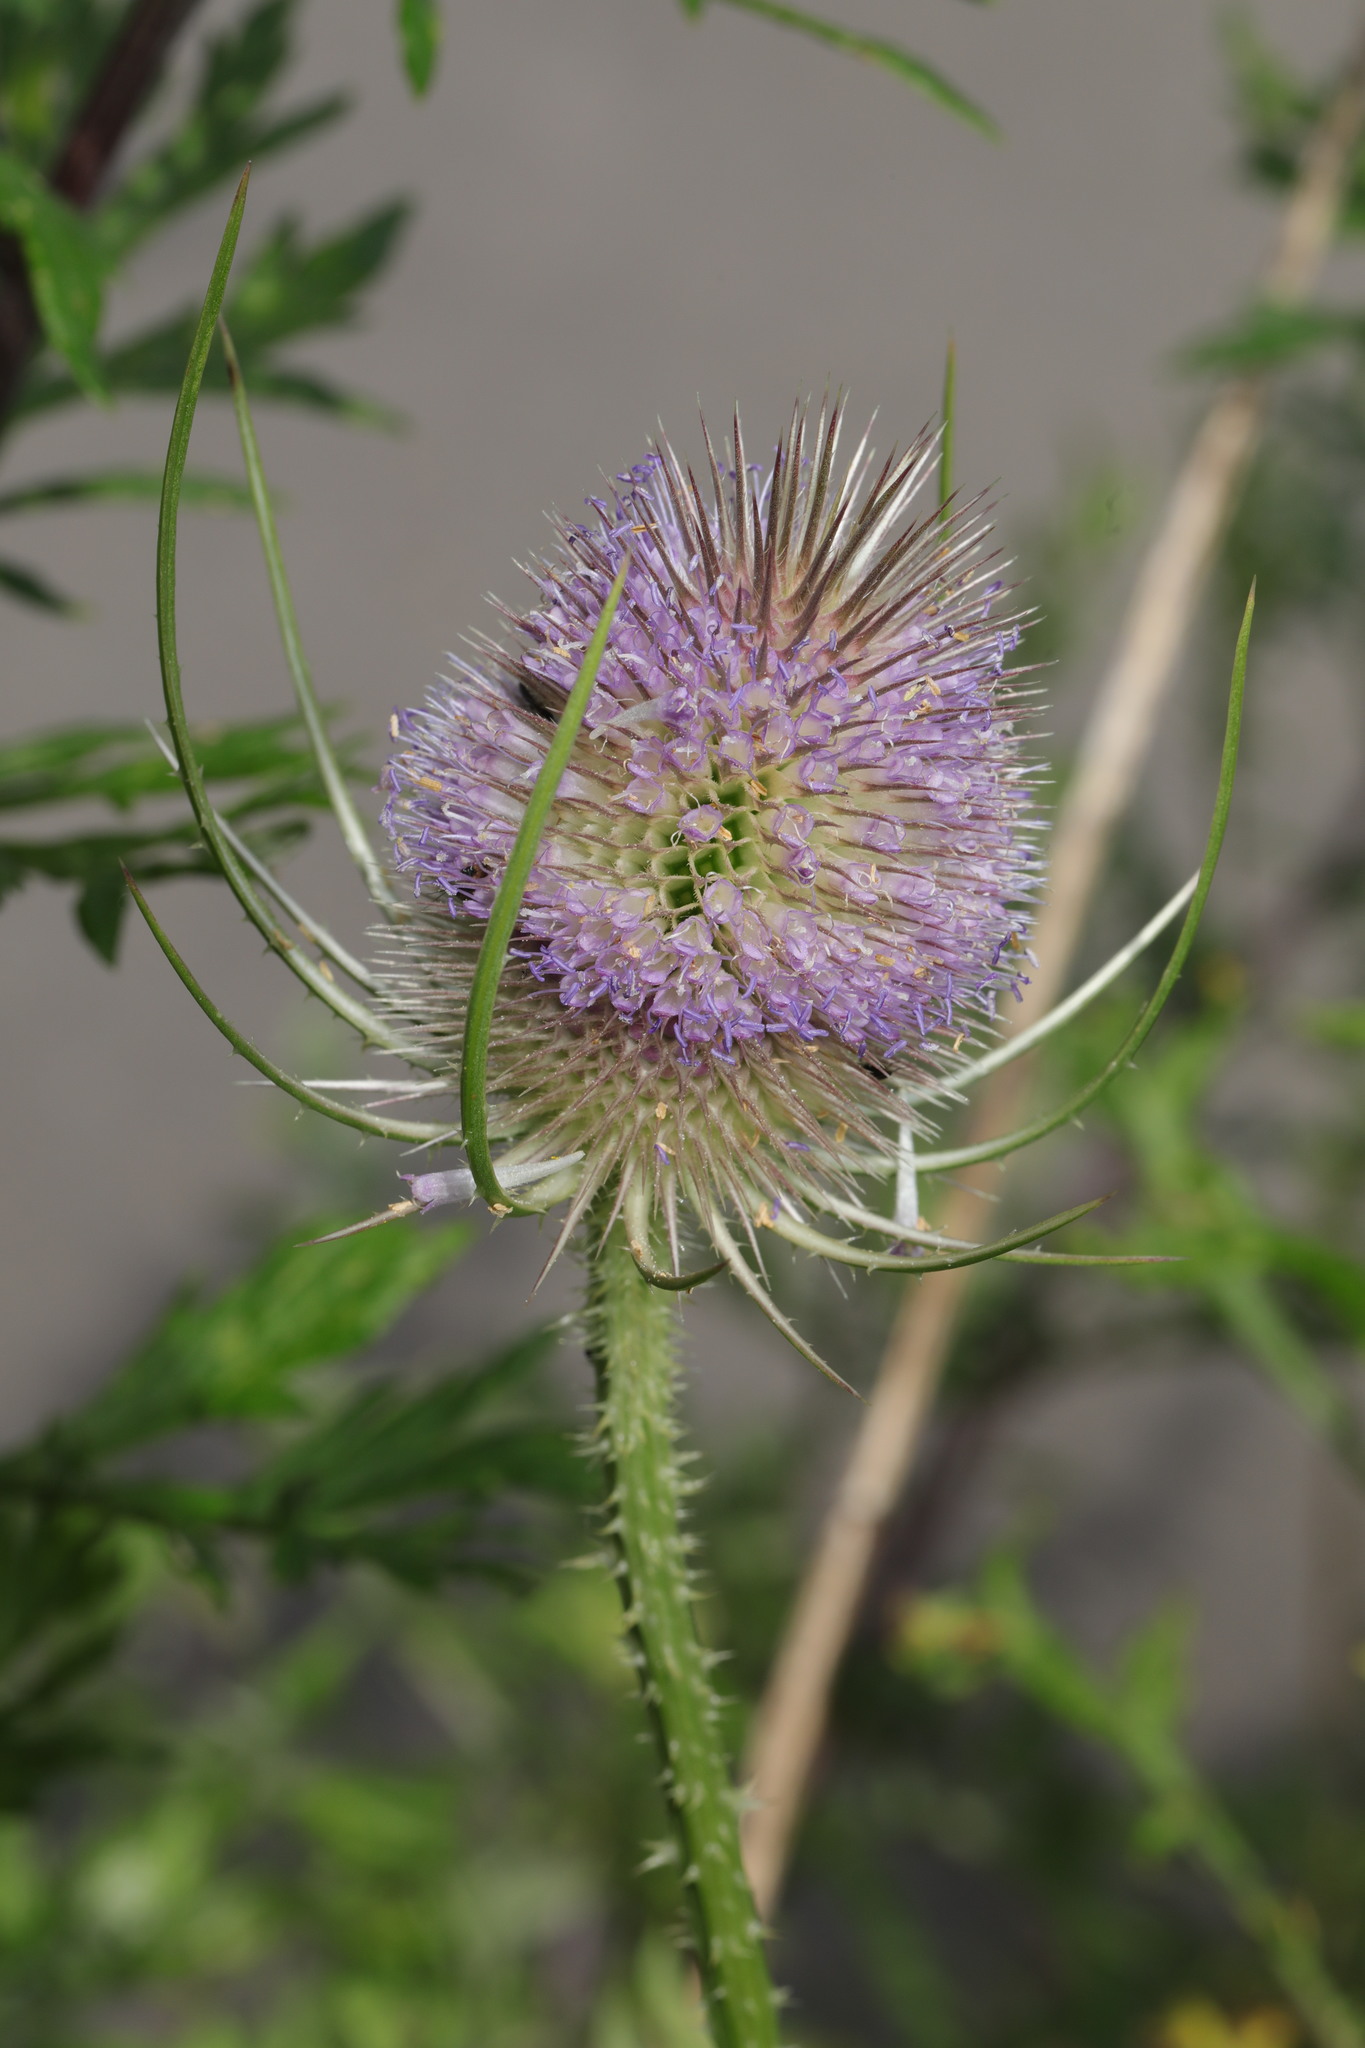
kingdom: Plantae
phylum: Tracheophyta
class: Magnoliopsida
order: Dipsacales
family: Caprifoliaceae
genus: Dipsacus
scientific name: Dipsacus fullonum
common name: Teasel
